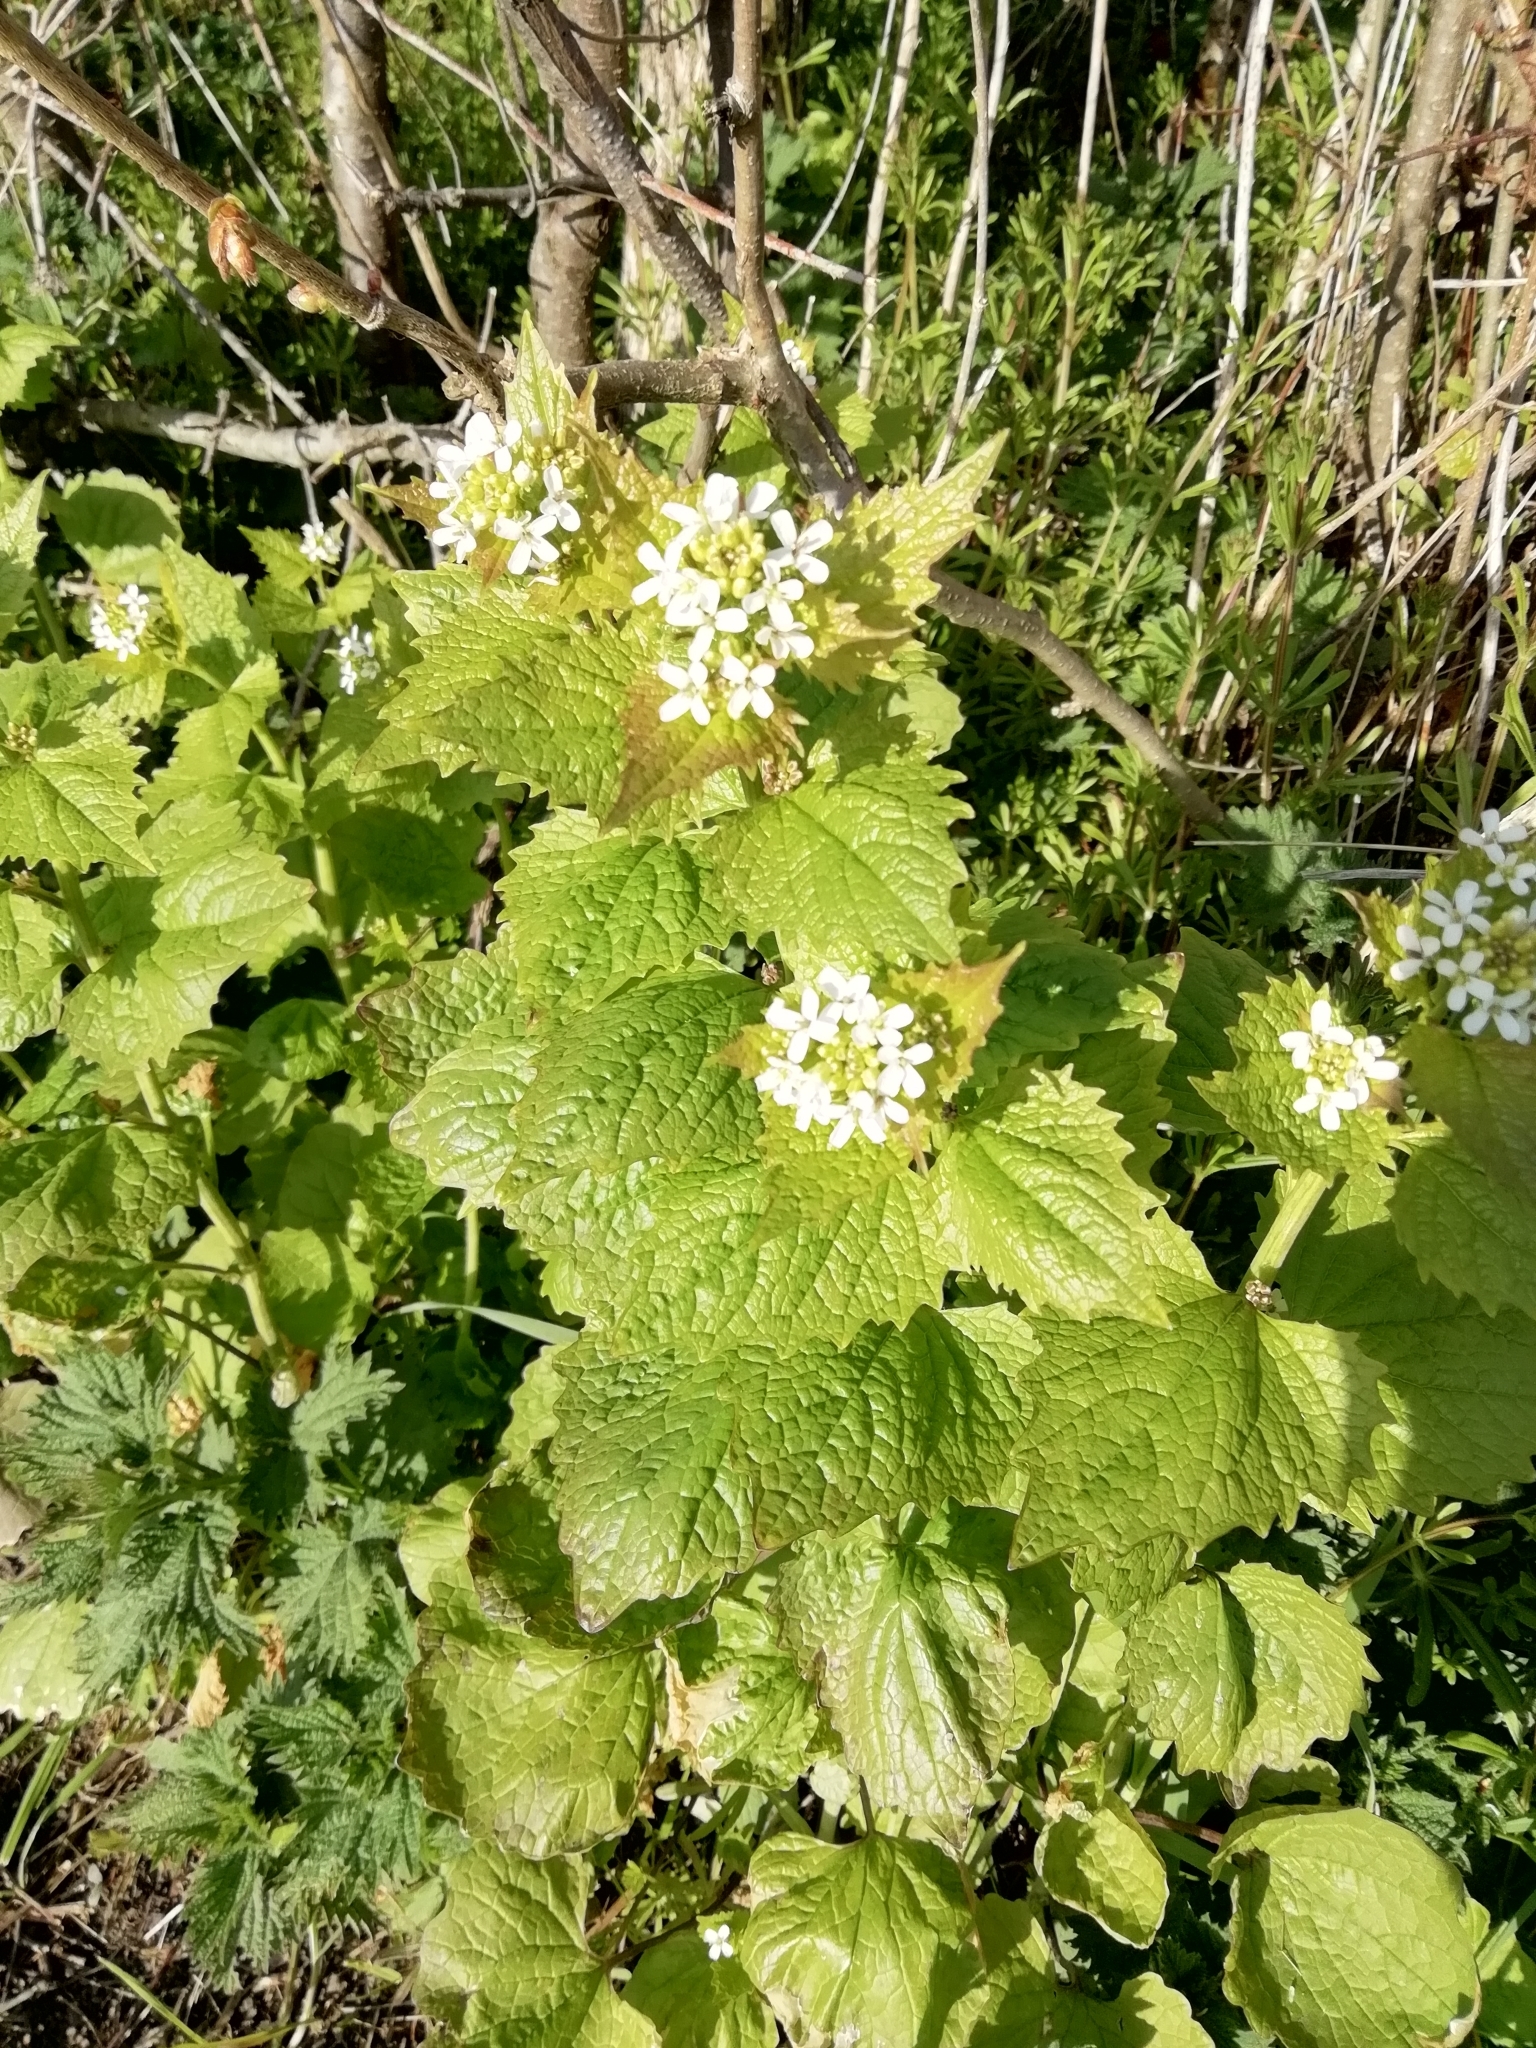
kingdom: Plantae
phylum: Tracheophyta
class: Magnoliopsida
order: Brassicales
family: Brassicaceae
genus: Alliaria
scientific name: Alliaria petiolata
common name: Garlic mustard
